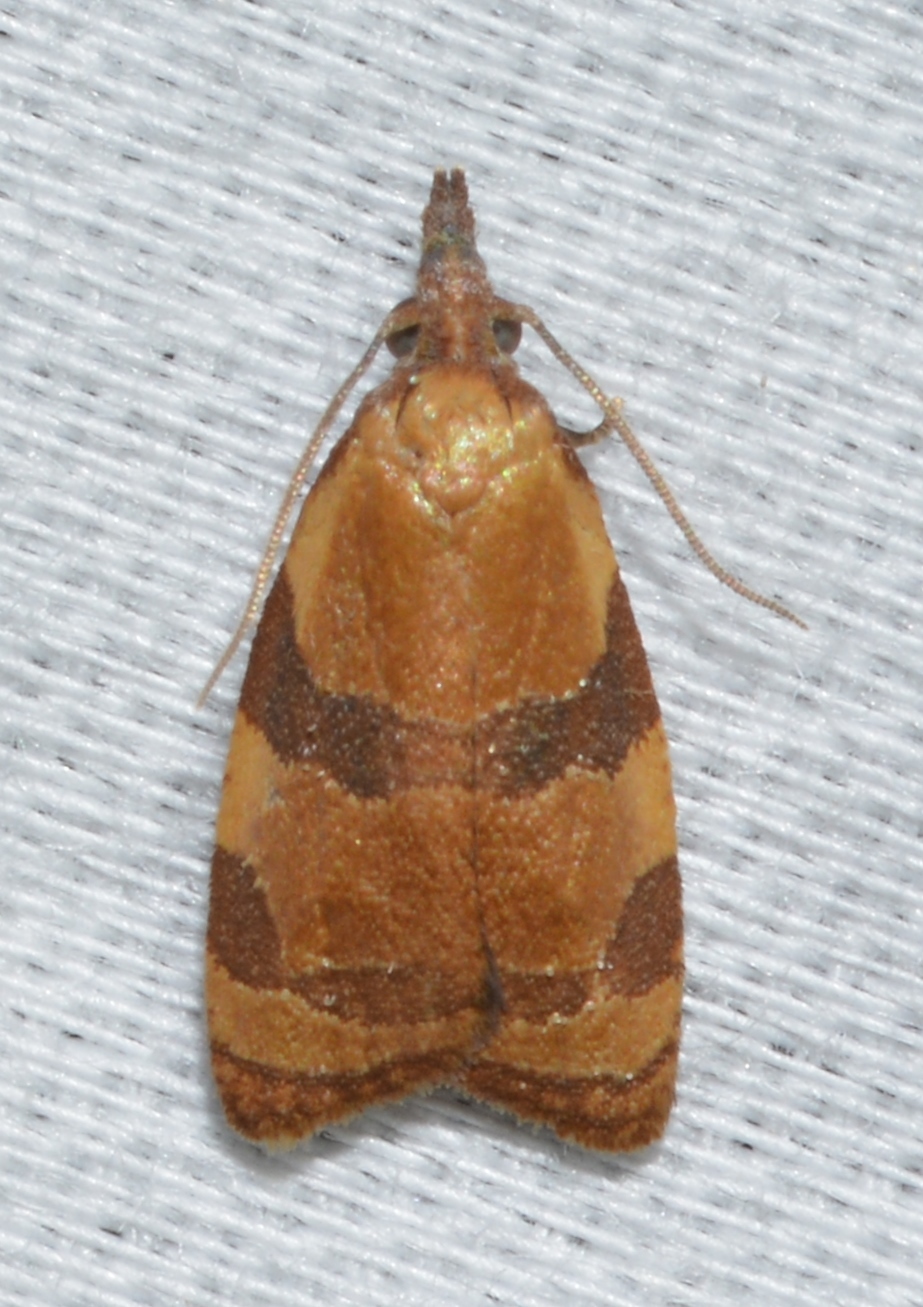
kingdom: Animalia
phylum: Arthropoda
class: Insecta
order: Lepidoptera
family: Tortricidae
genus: Cenopis
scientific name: Cenopis diluticostana
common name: Spring dead-leaf roller moth
